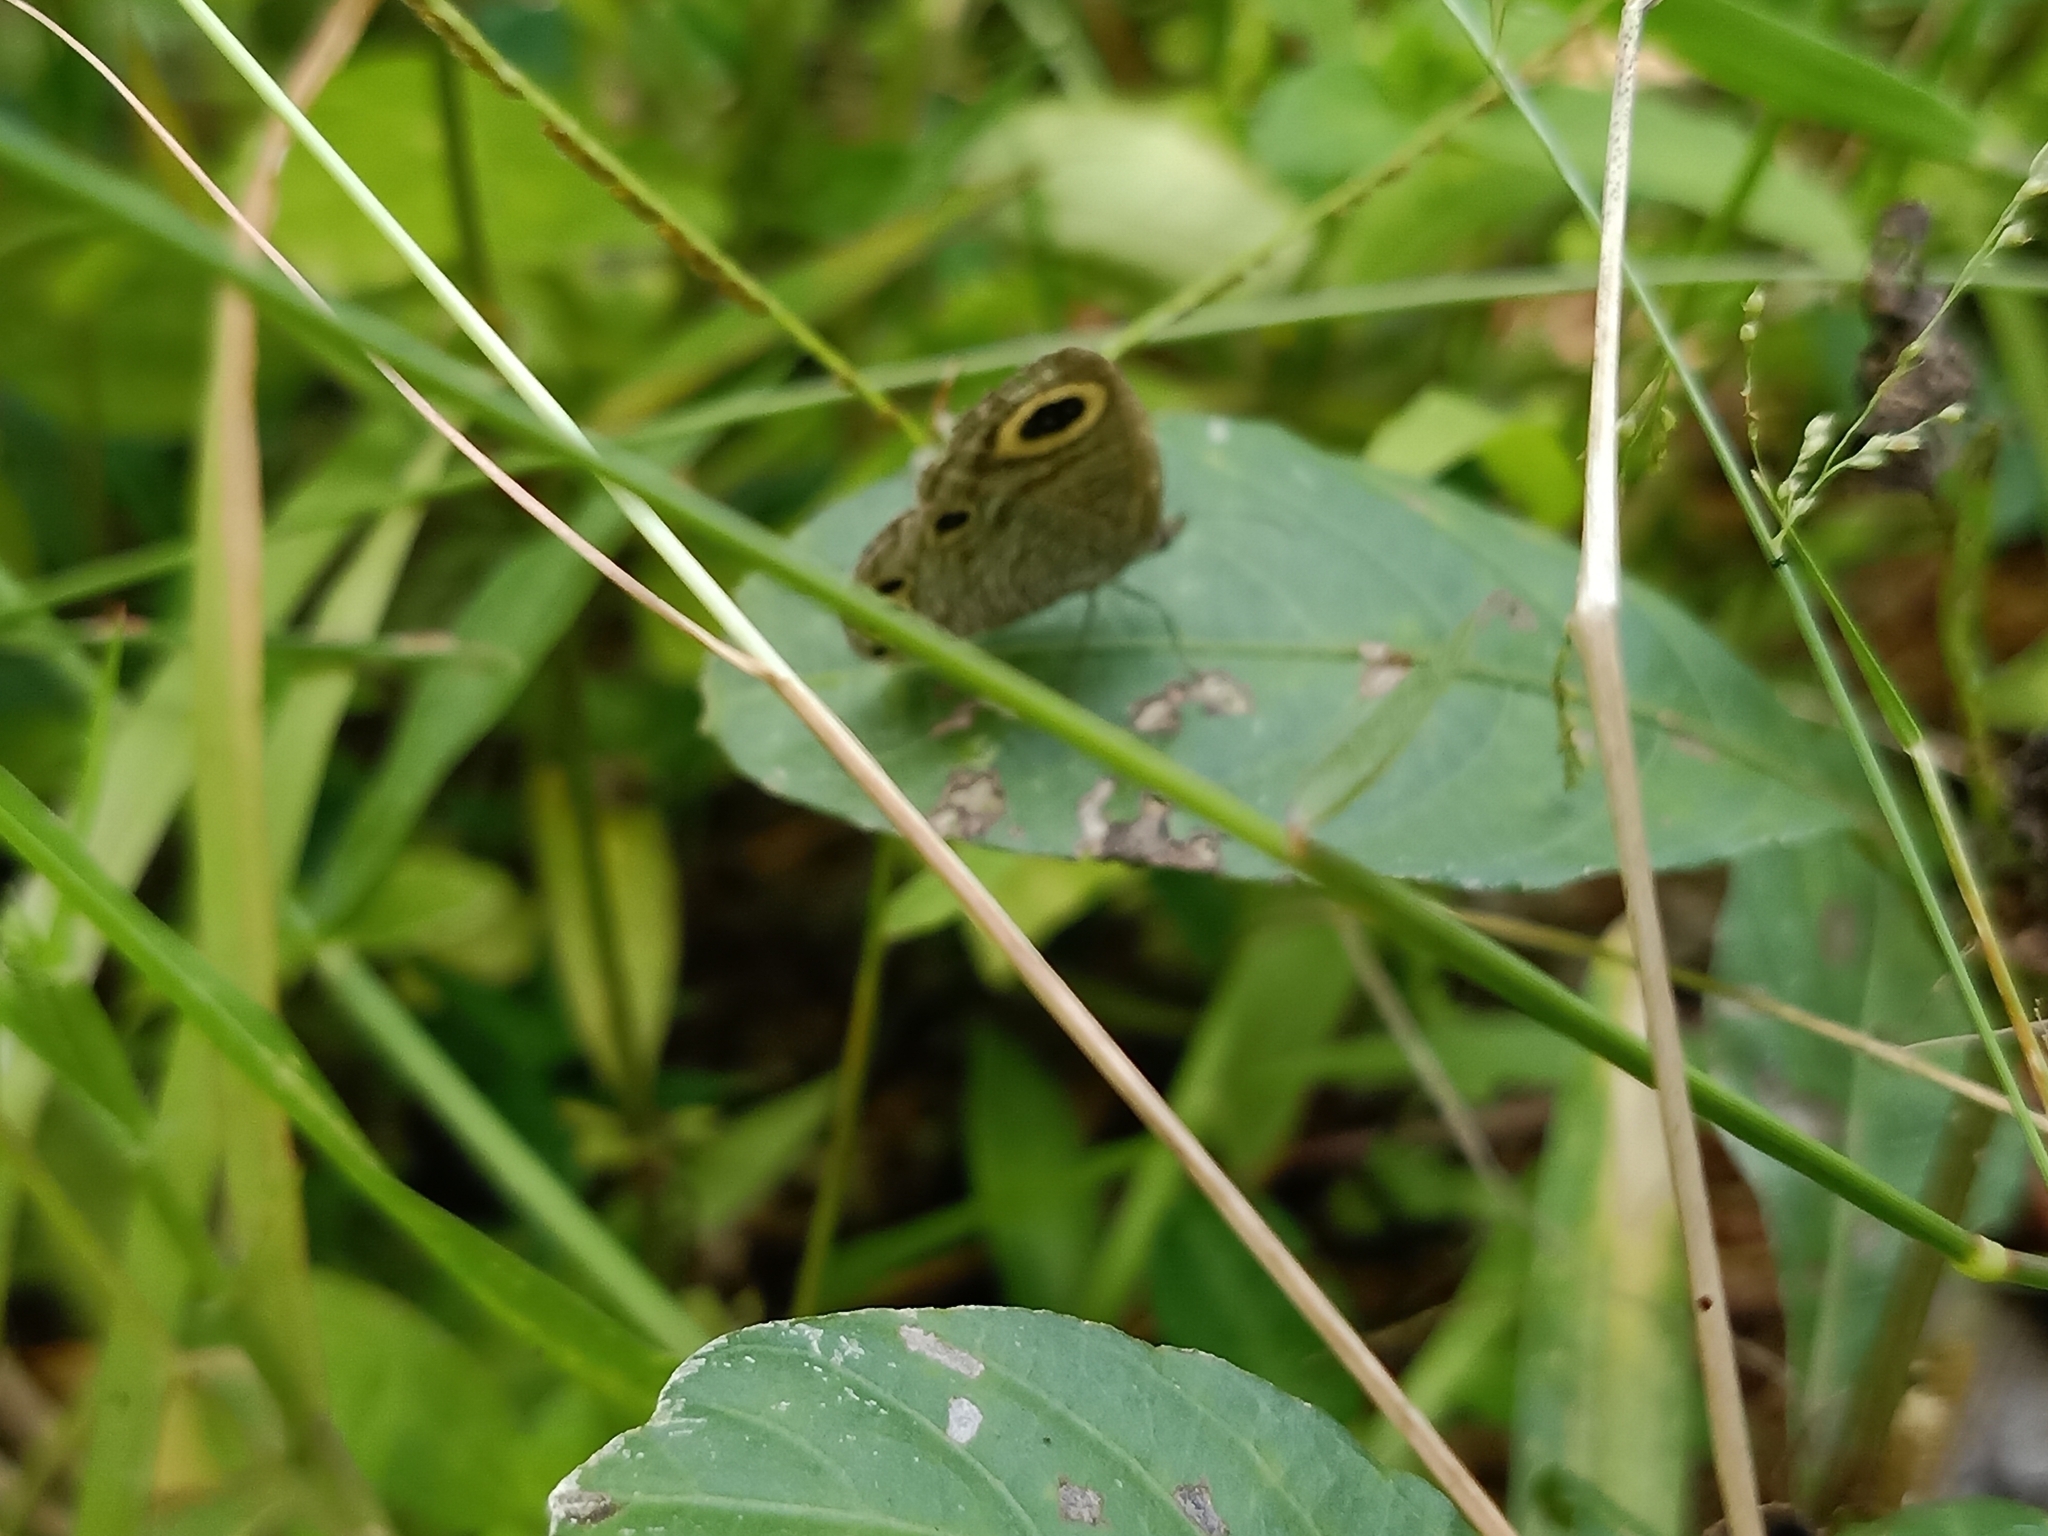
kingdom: Animalia
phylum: Arthropoda
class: Insecta
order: Lepidoptera
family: Nymphalidae
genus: Ypthima
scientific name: Ypthima huebneri
